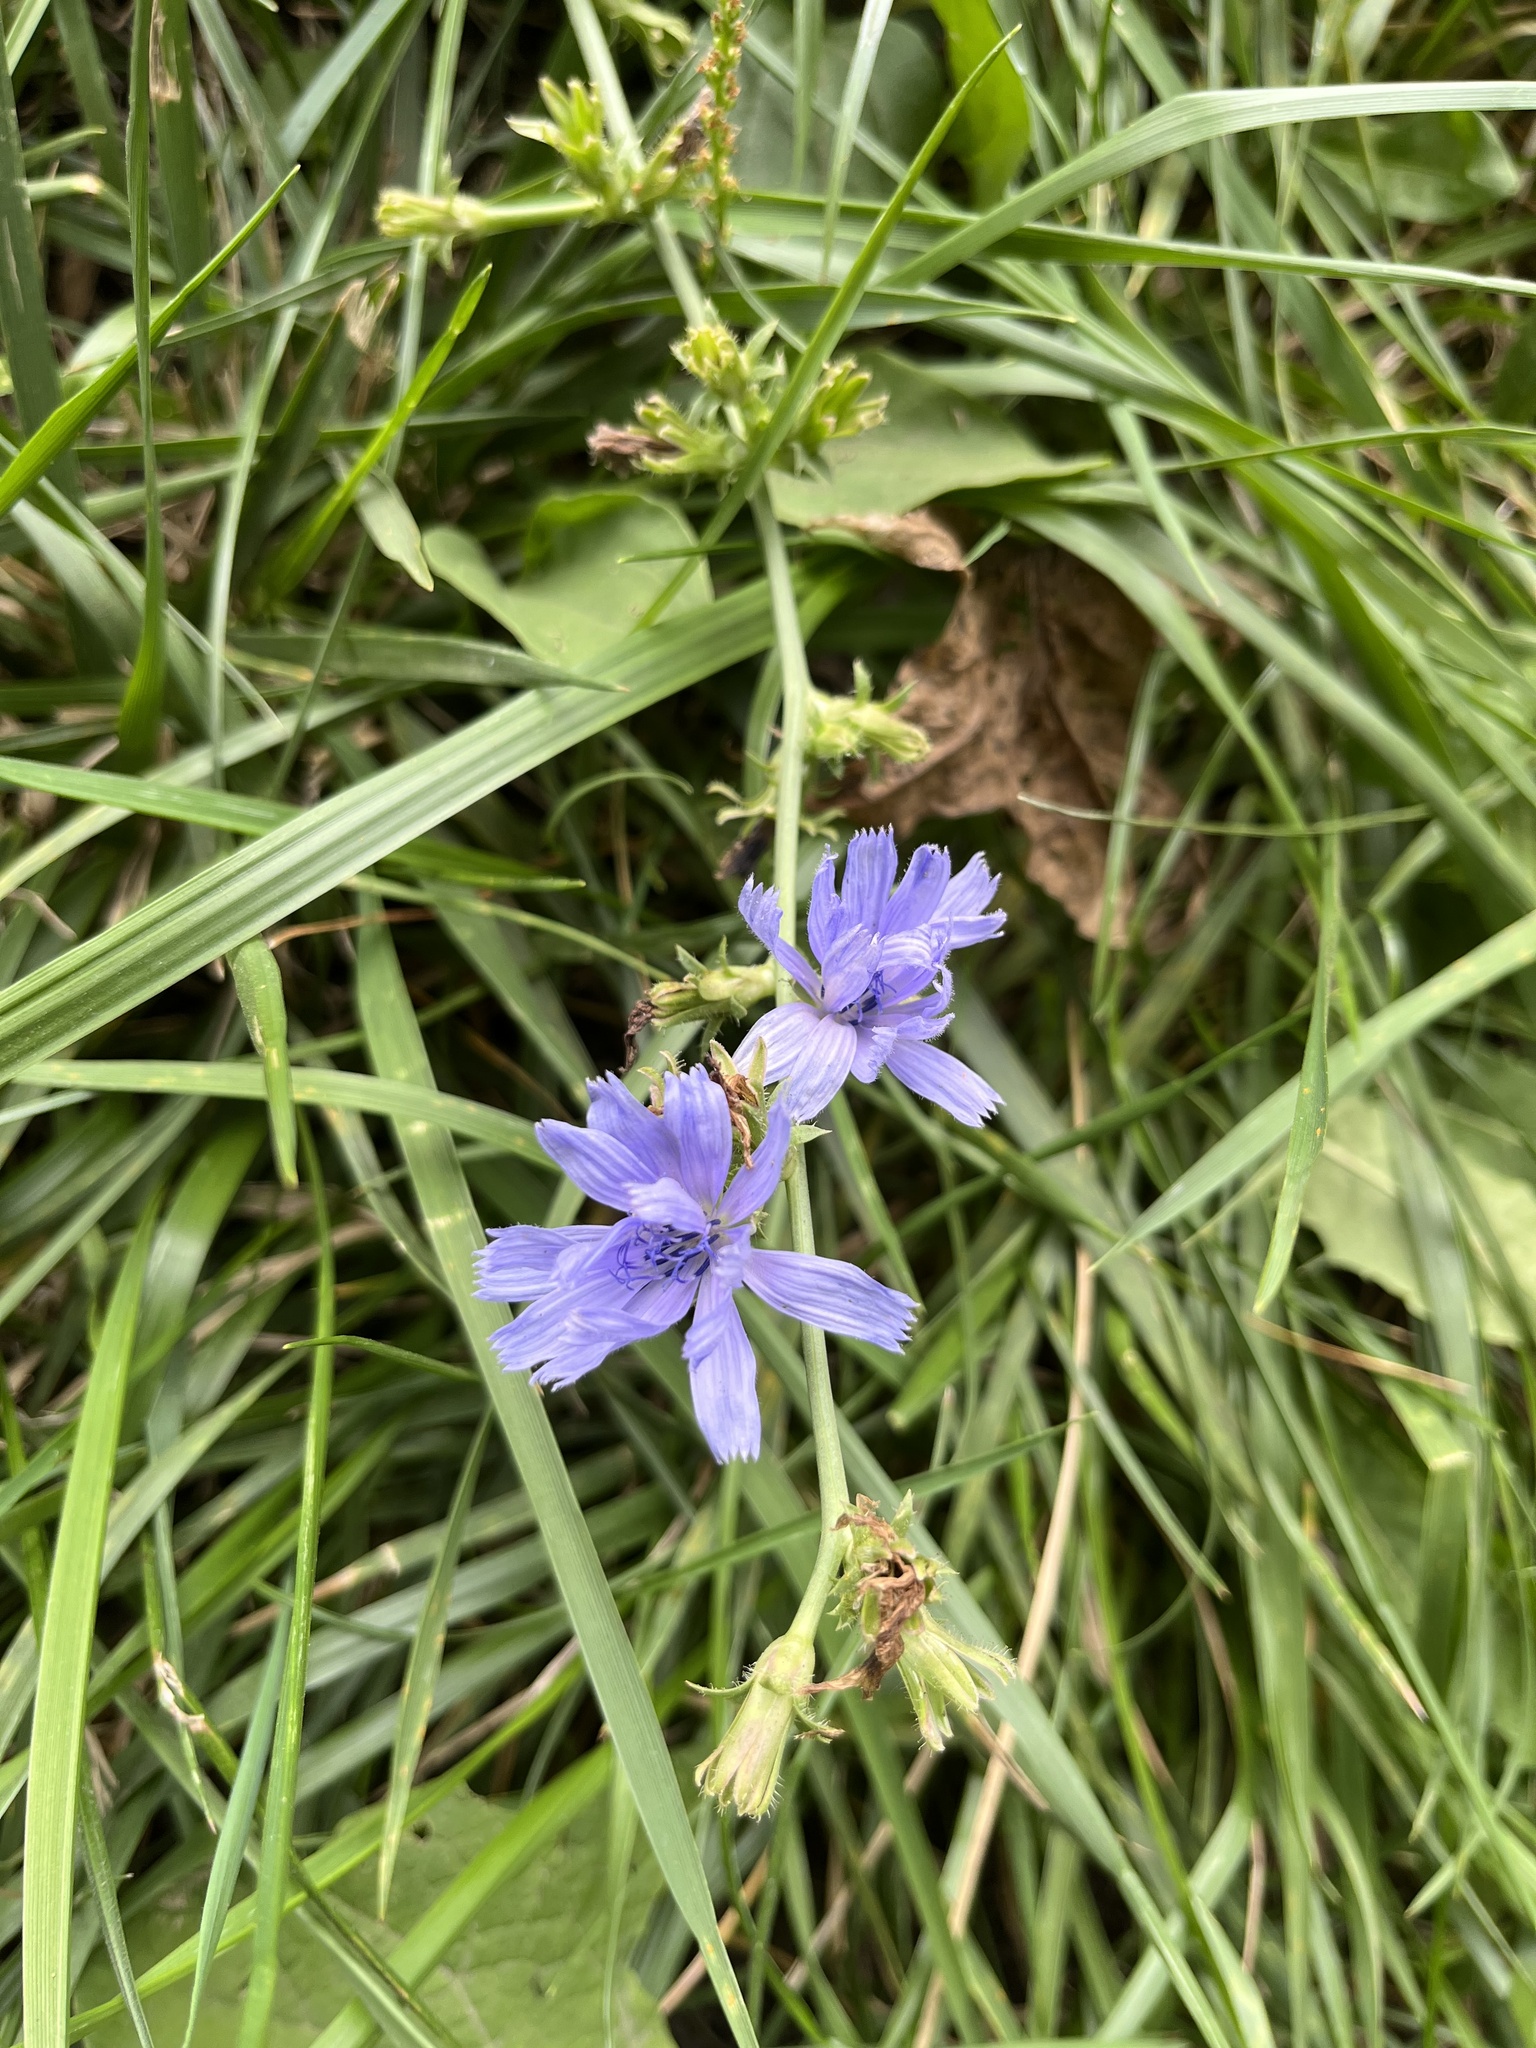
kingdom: Plantae
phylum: Tracheophyta
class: Magnoliopsida
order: Asterales
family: Asteraceae
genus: Cichorium
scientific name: Cichorium intybus
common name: Chicory
